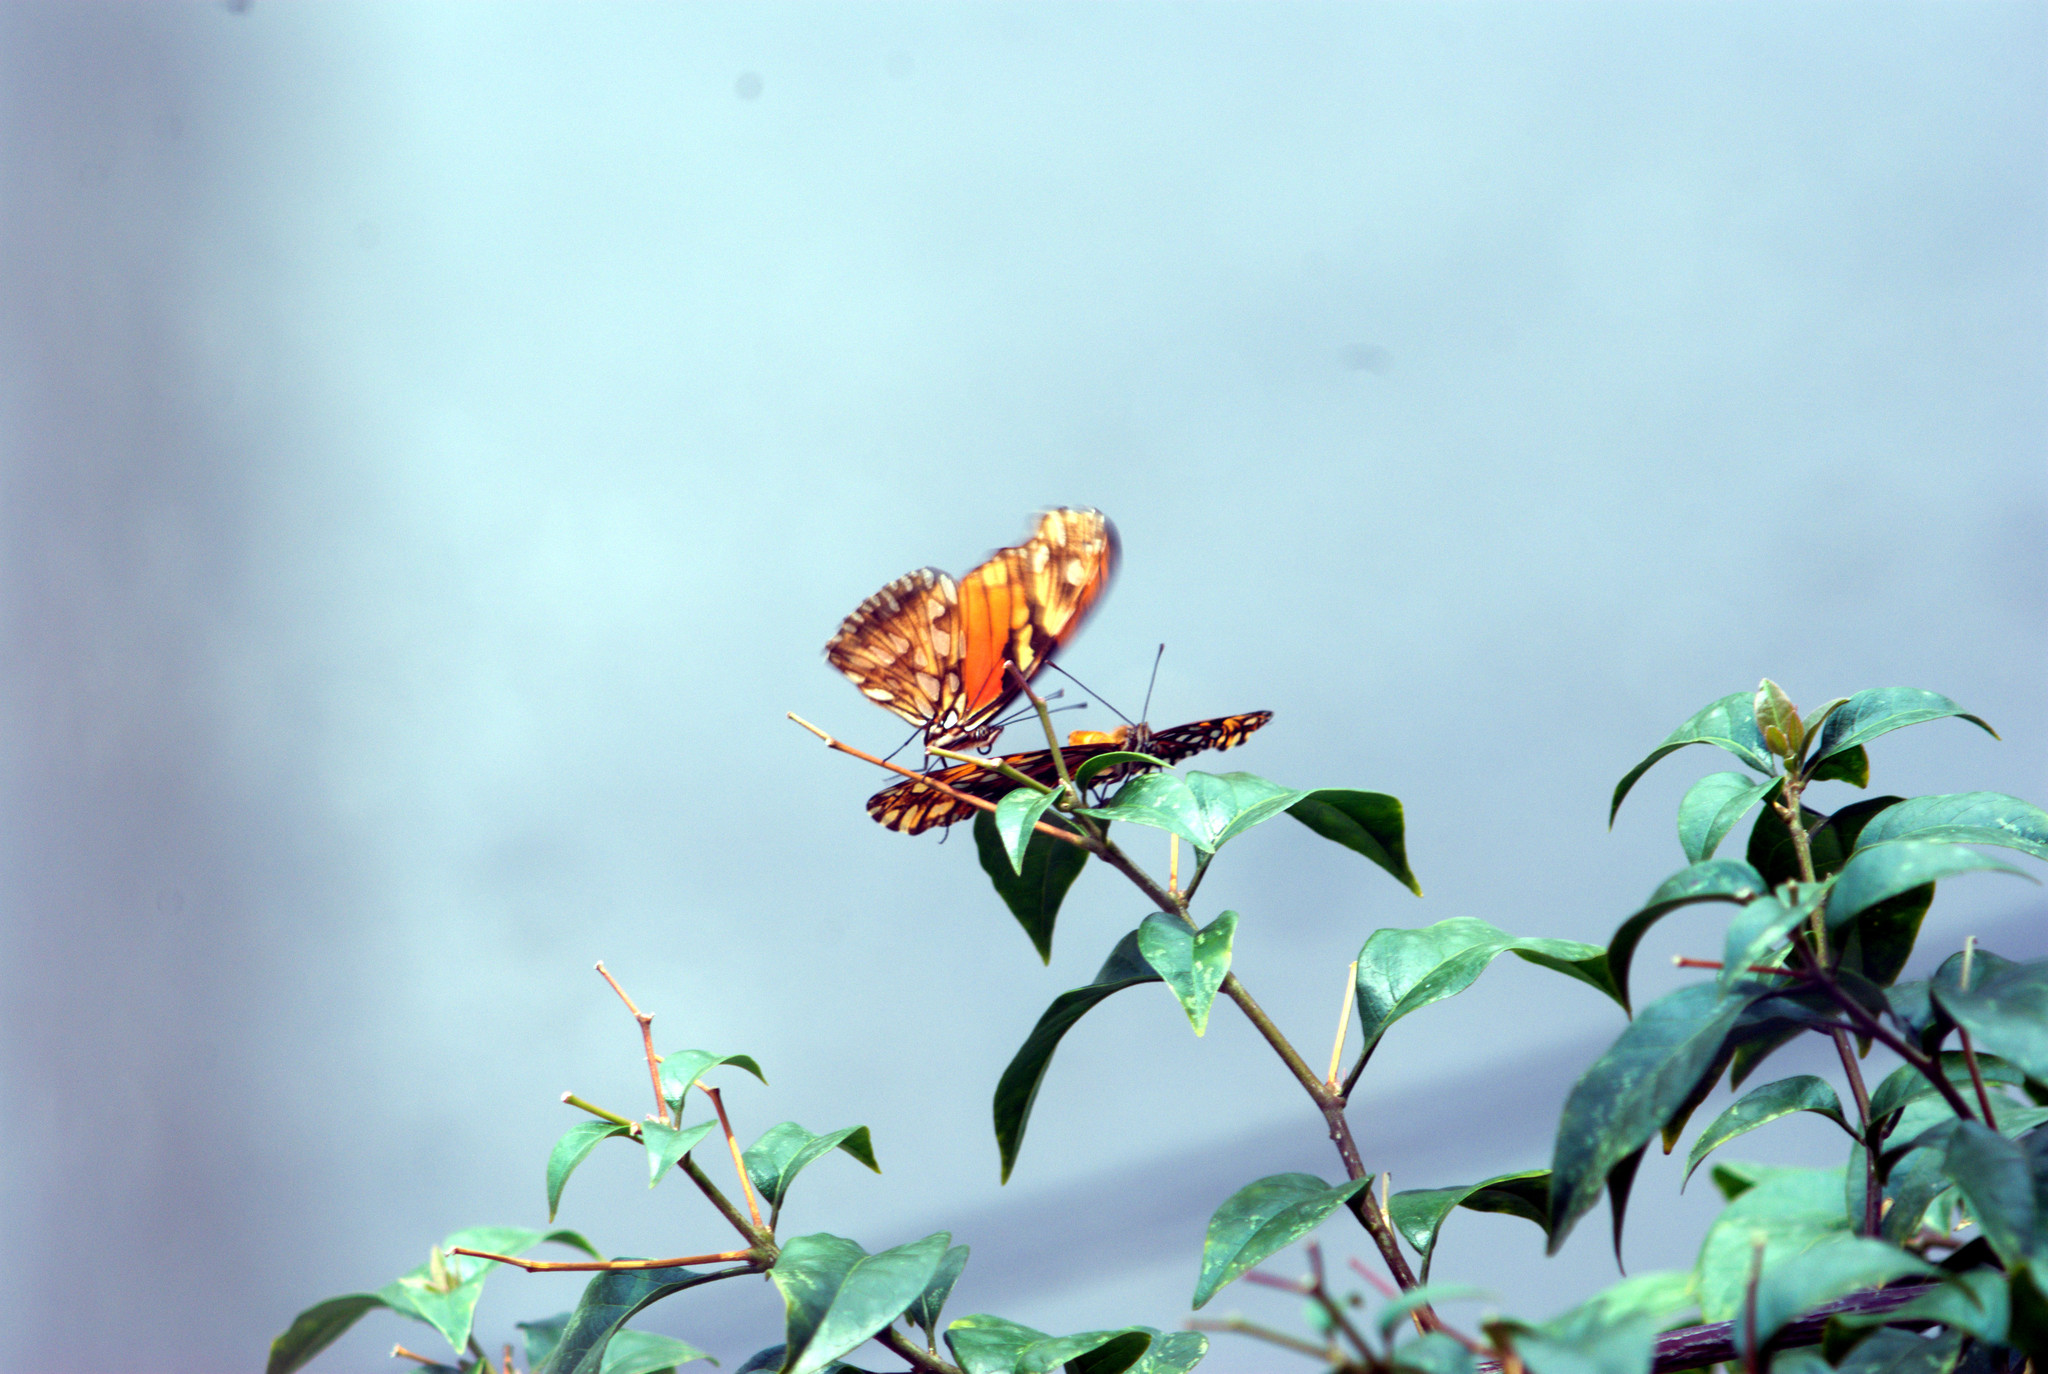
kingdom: Animalia
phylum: Arthropoda
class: Insecta
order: Lepidoptera
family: Nymphalidae
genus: Dione
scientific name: Dione juno
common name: Juno silverspot
